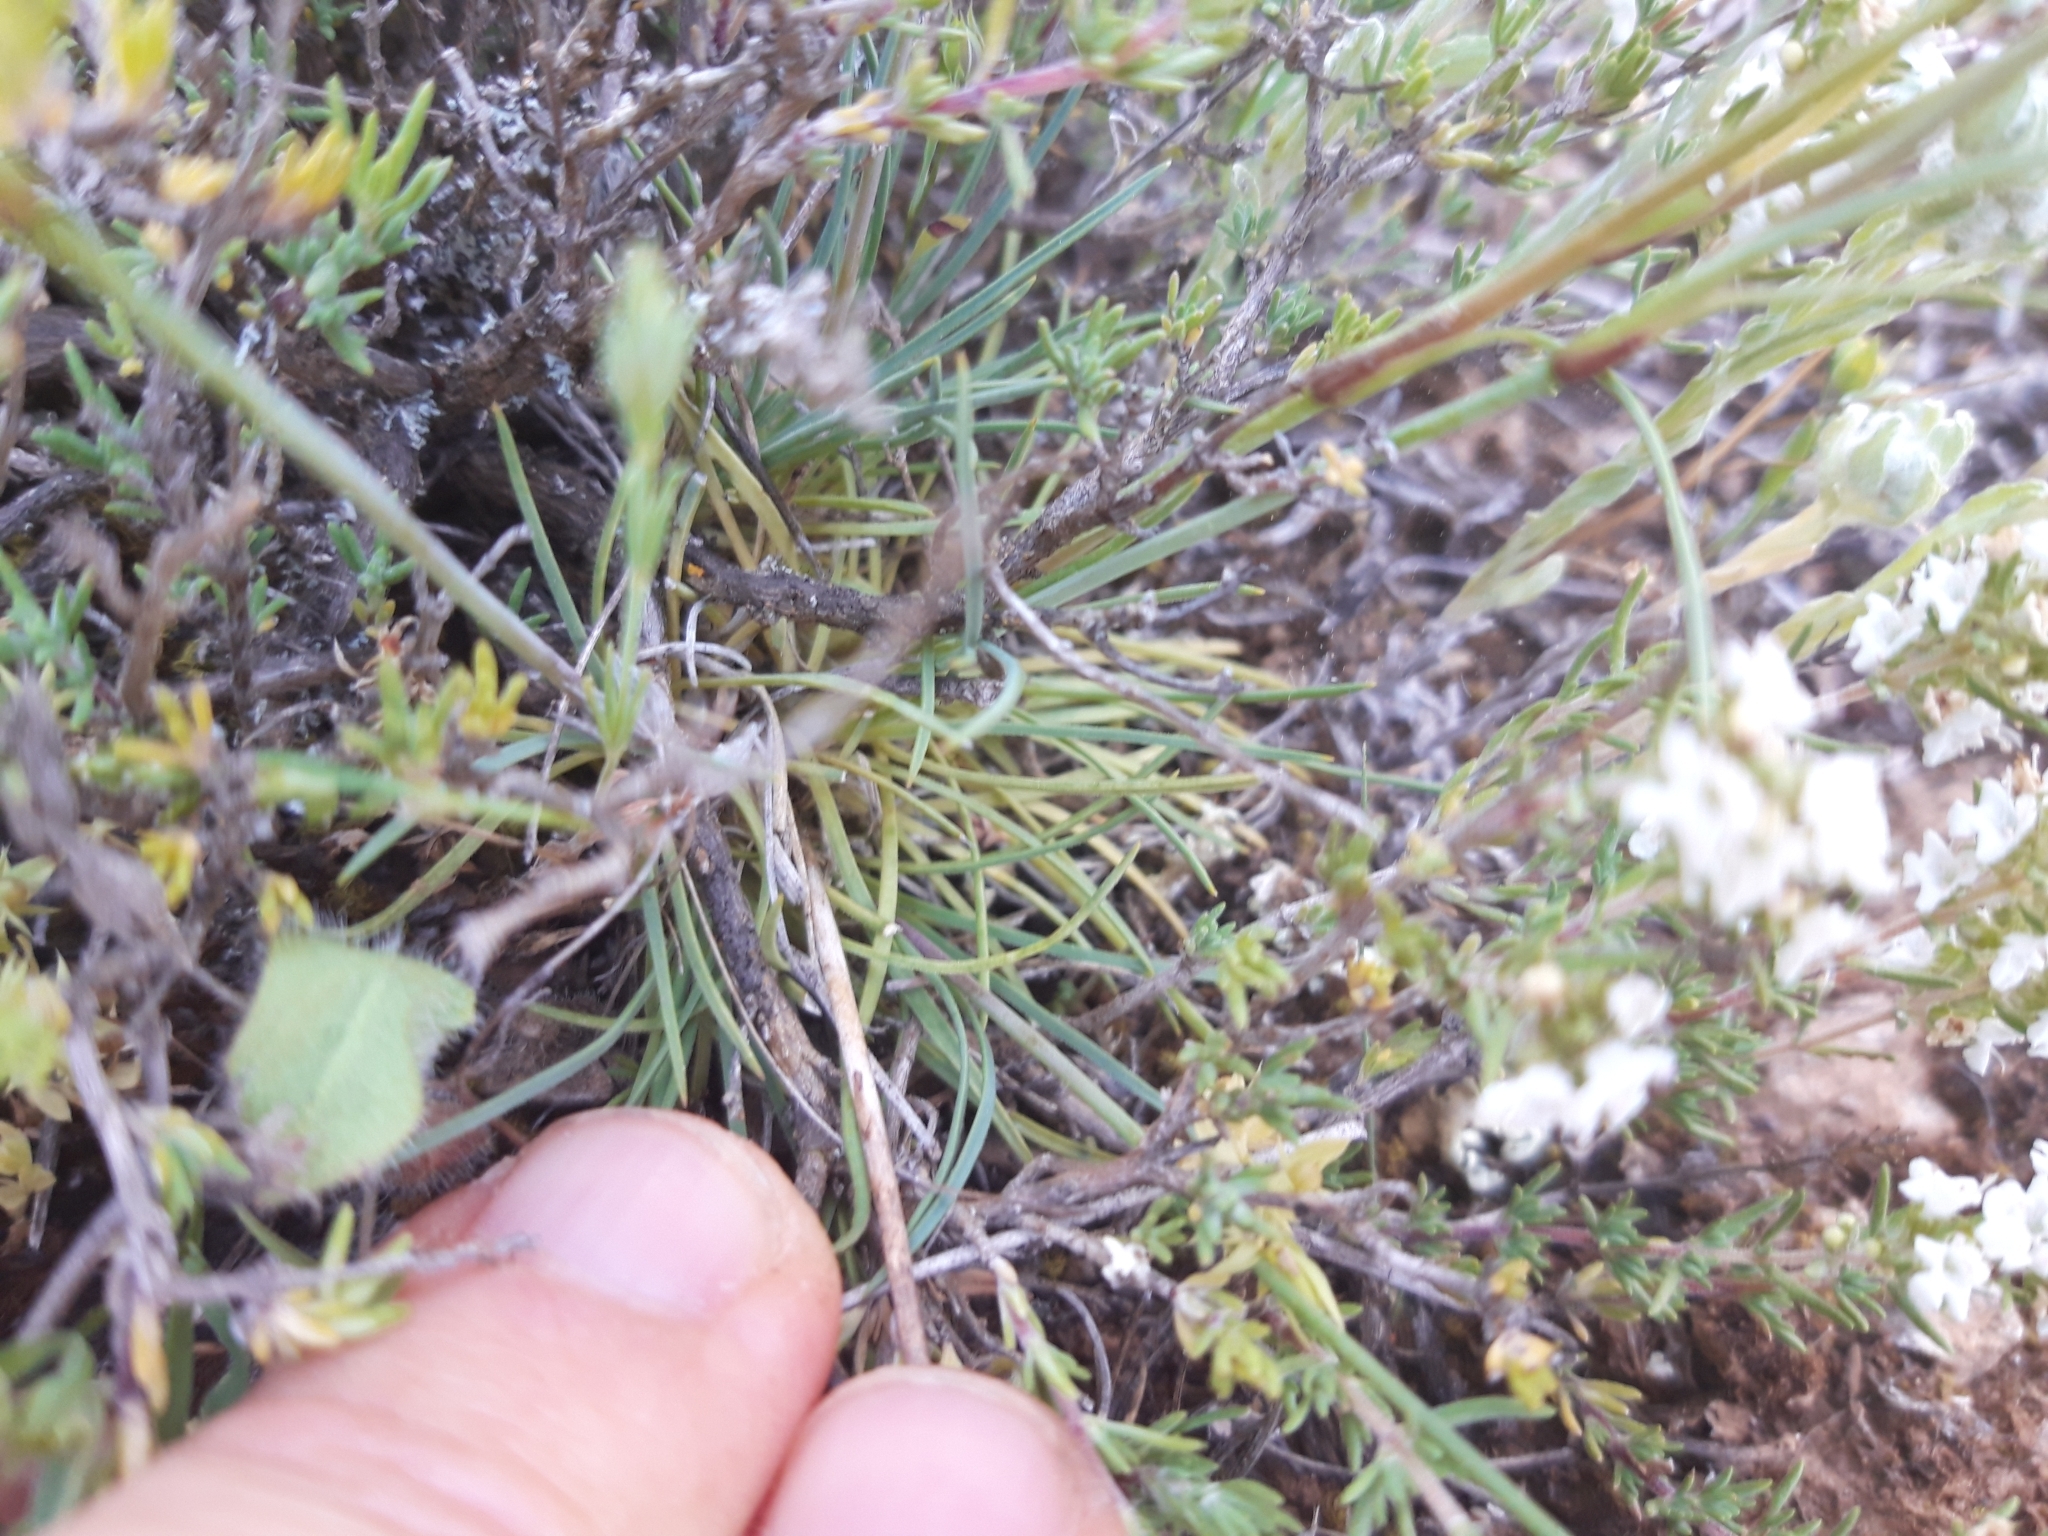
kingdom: Plantae
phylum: Tracheophyta
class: Magnoliopsida
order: Caryophyllales
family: Caryophyllaceae
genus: Dianthus
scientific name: Dianthus pungens
